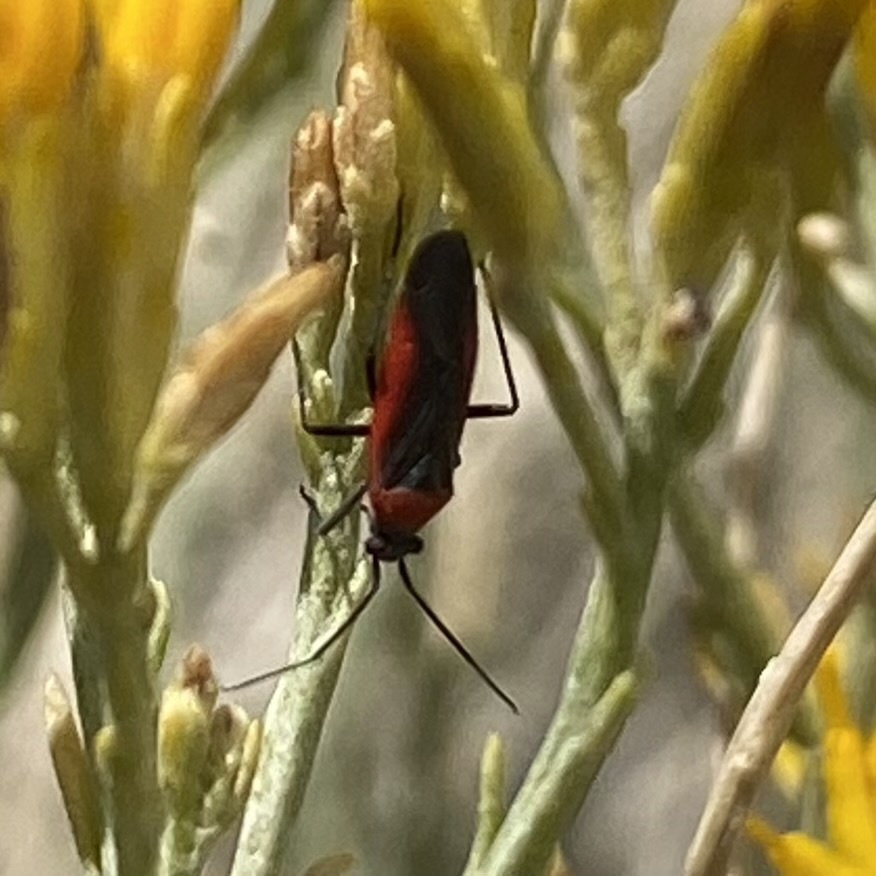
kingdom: Animalia
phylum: Arthropoda
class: Insecta
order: Hemiptera
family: Miridae
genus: Oncerometopus
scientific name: Oncerometopus atriscutis
